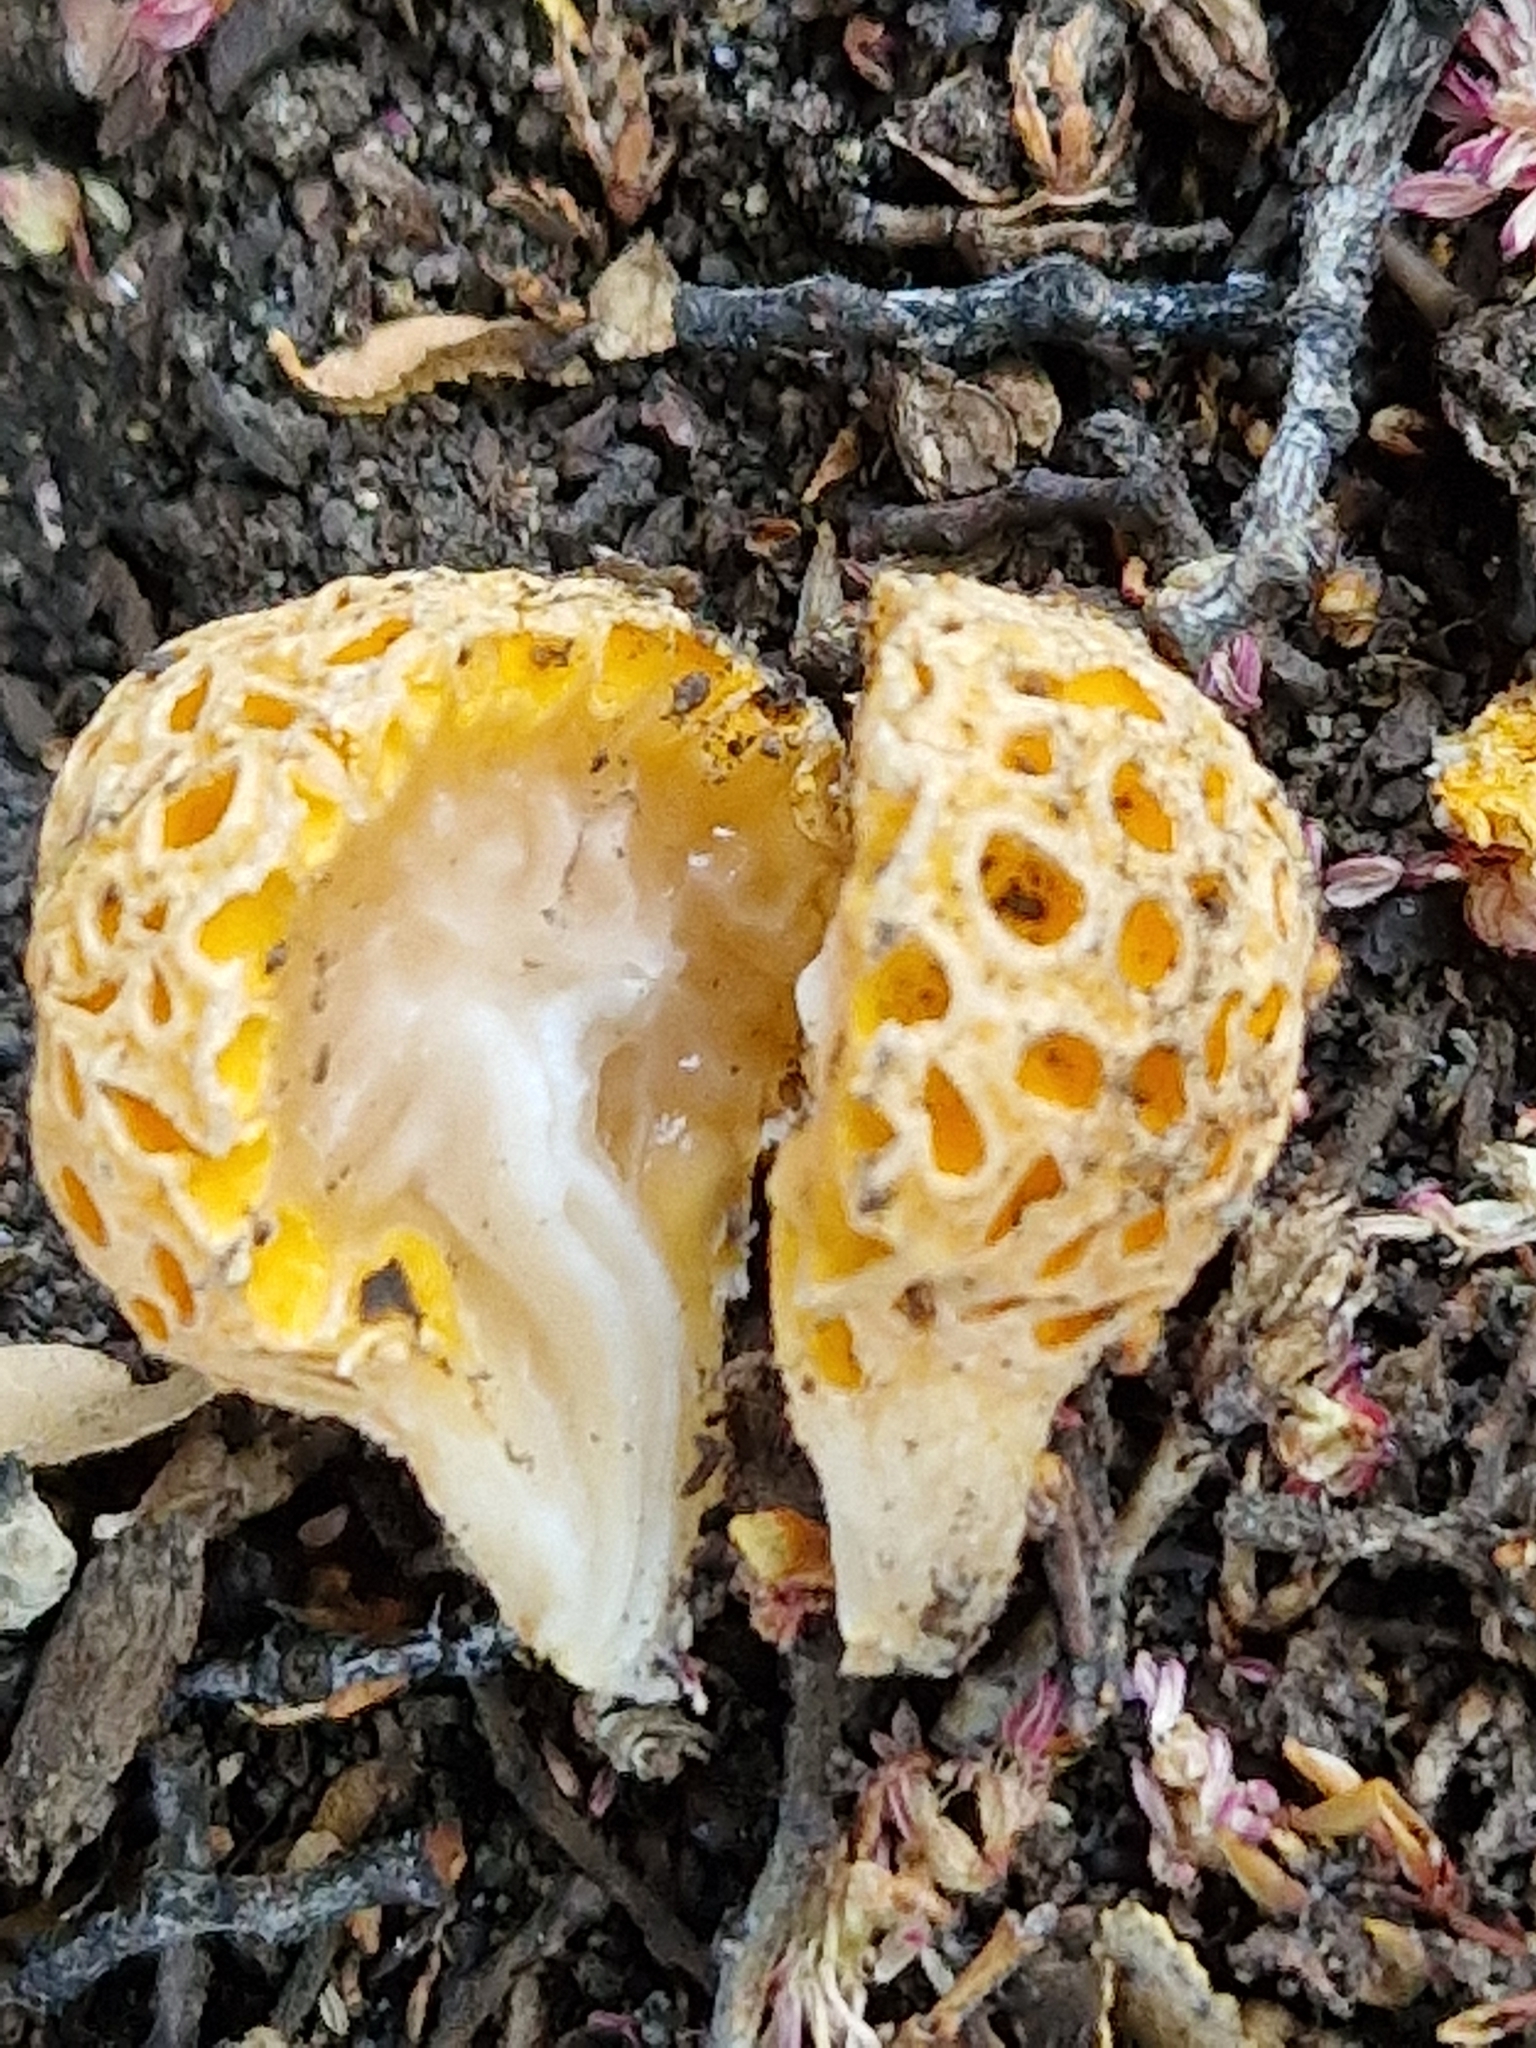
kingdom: Fungi
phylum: Ascomycota
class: Leotiomycetes
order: Cyttariales
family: Cyttariaceae
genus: Cyttaria
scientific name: Cyttaria hariotii
